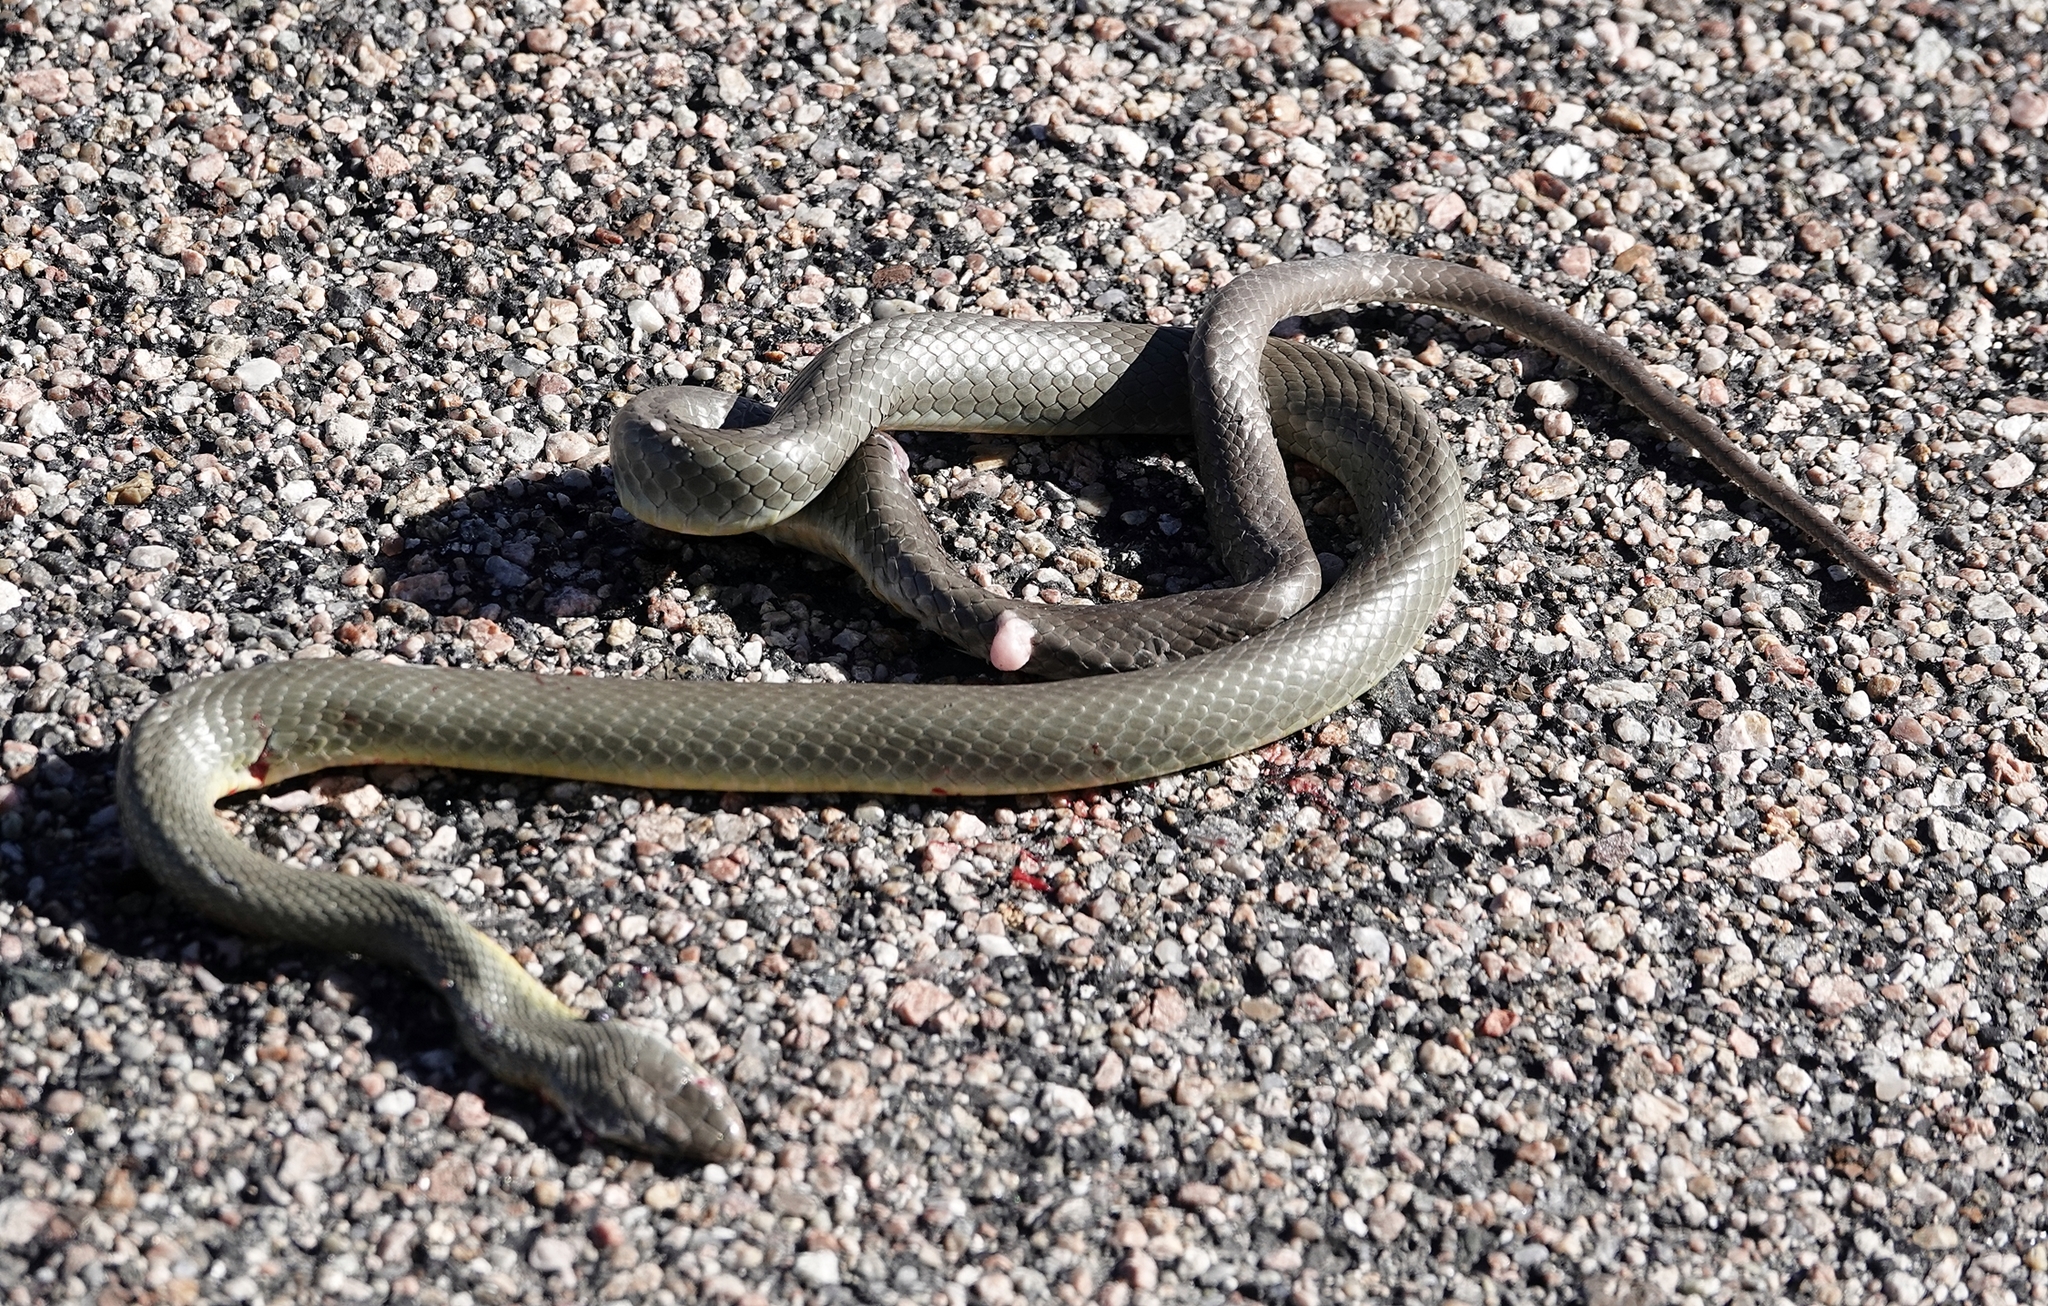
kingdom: Animalia
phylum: Chordata
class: Squamata
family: Colubridae
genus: Coluber
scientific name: Coluber constrictor
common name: Eastern racer
